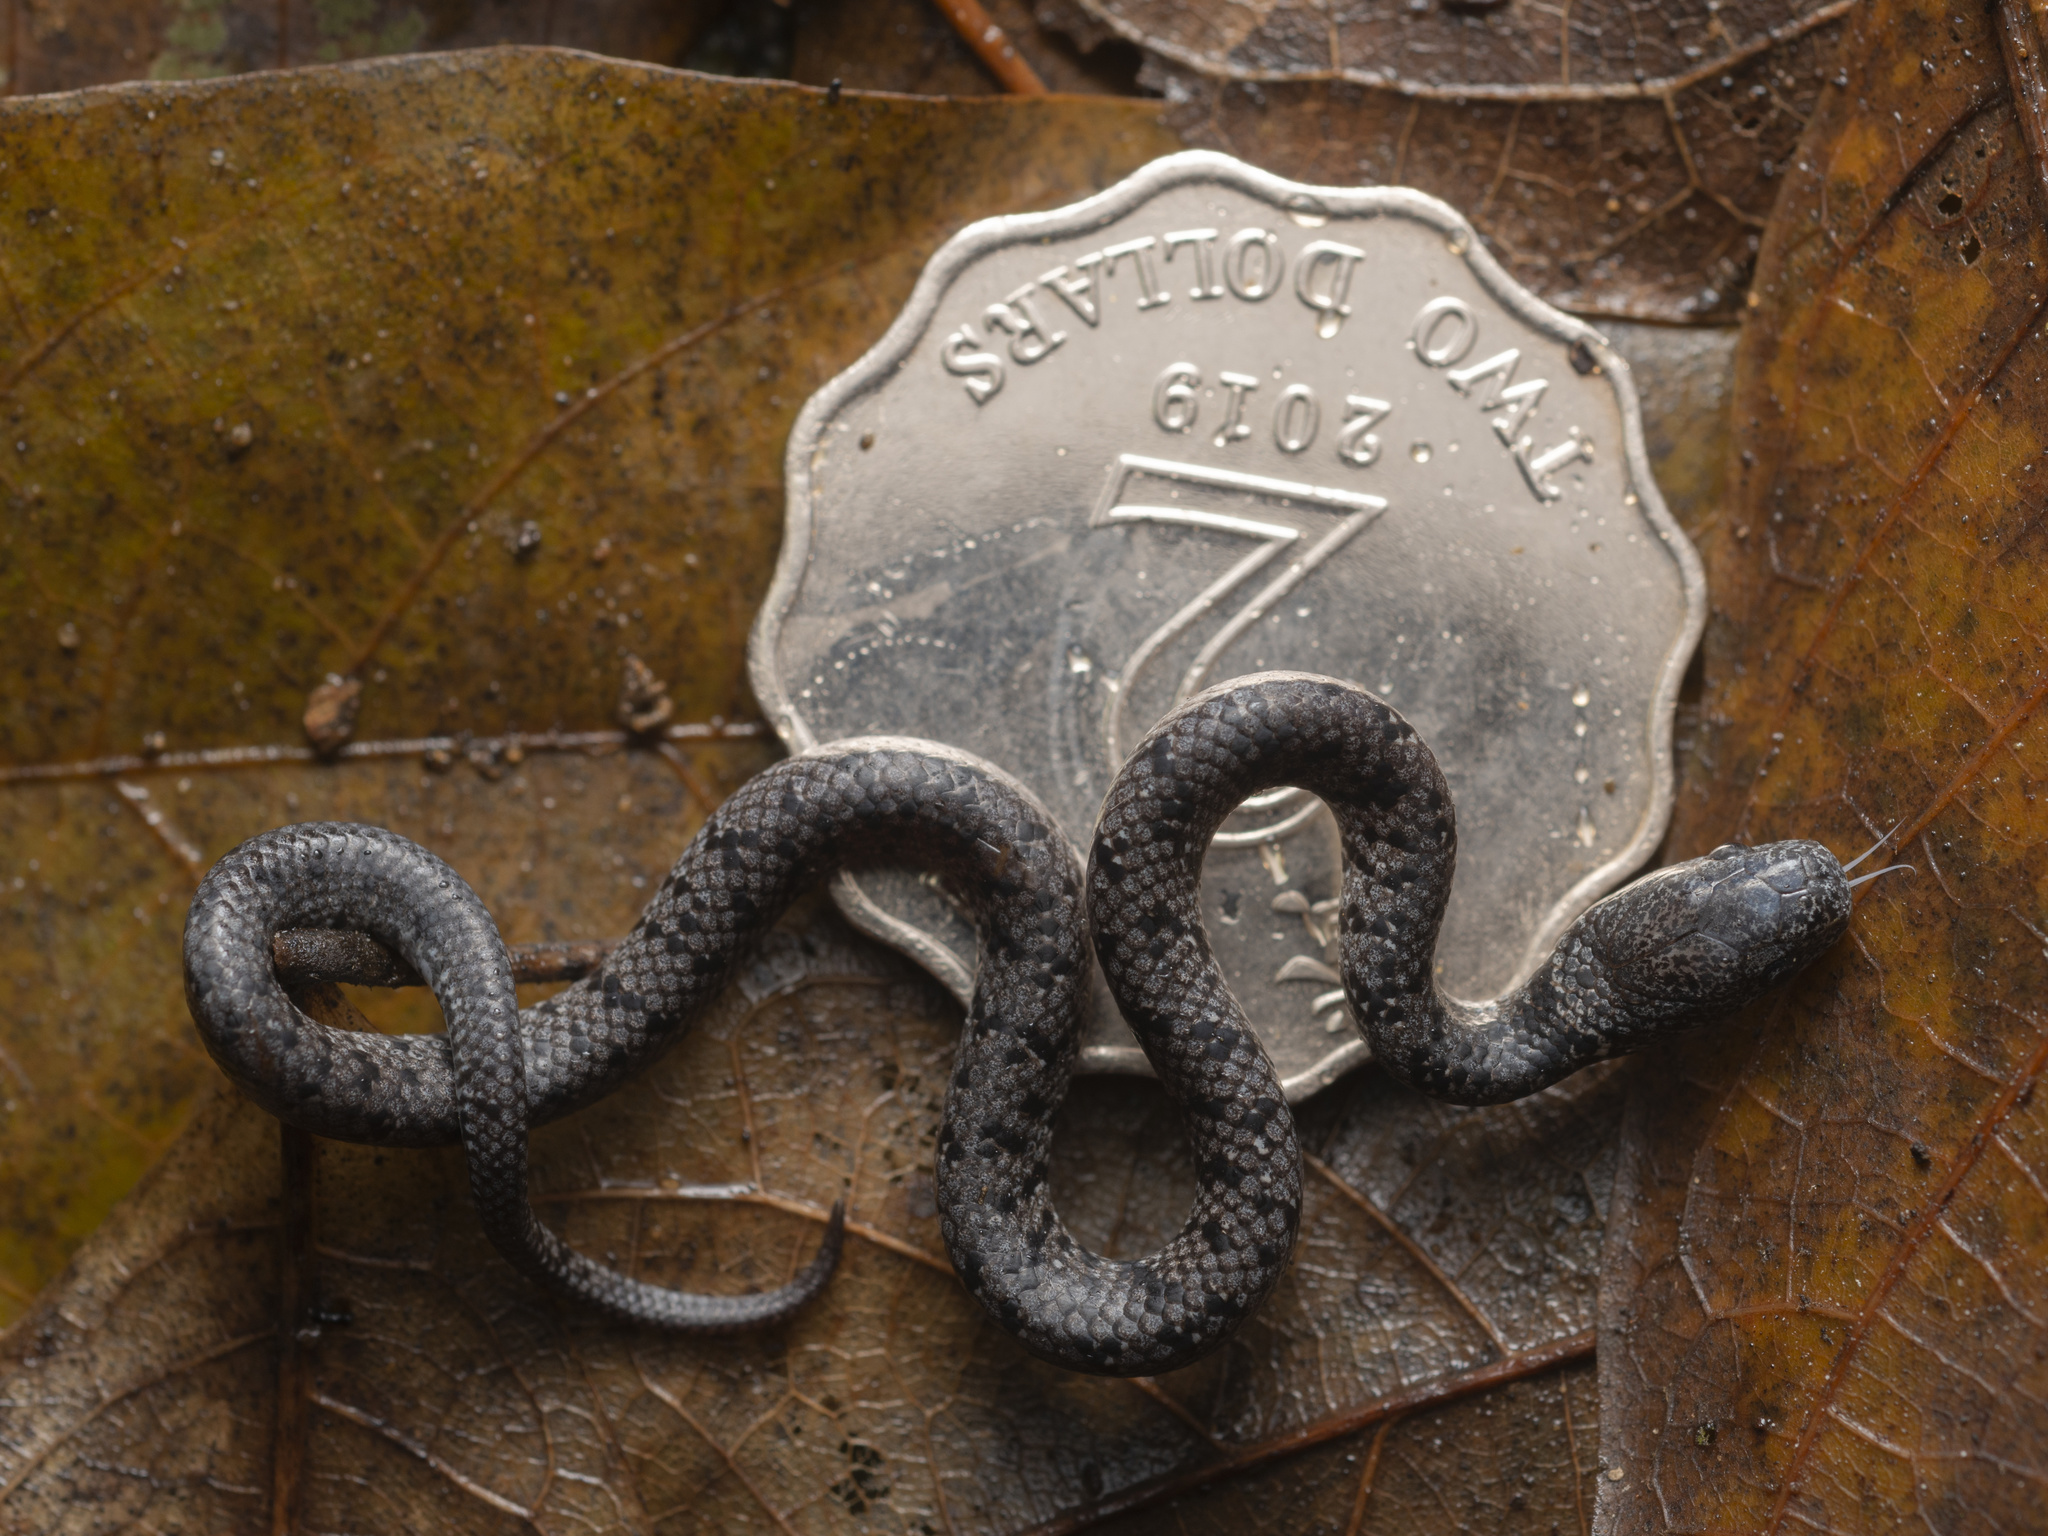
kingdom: Animalia
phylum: Chordata
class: Squamata
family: Pareidae
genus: Pareas
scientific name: Pareas margaritophorus
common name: Mountain slug snake
